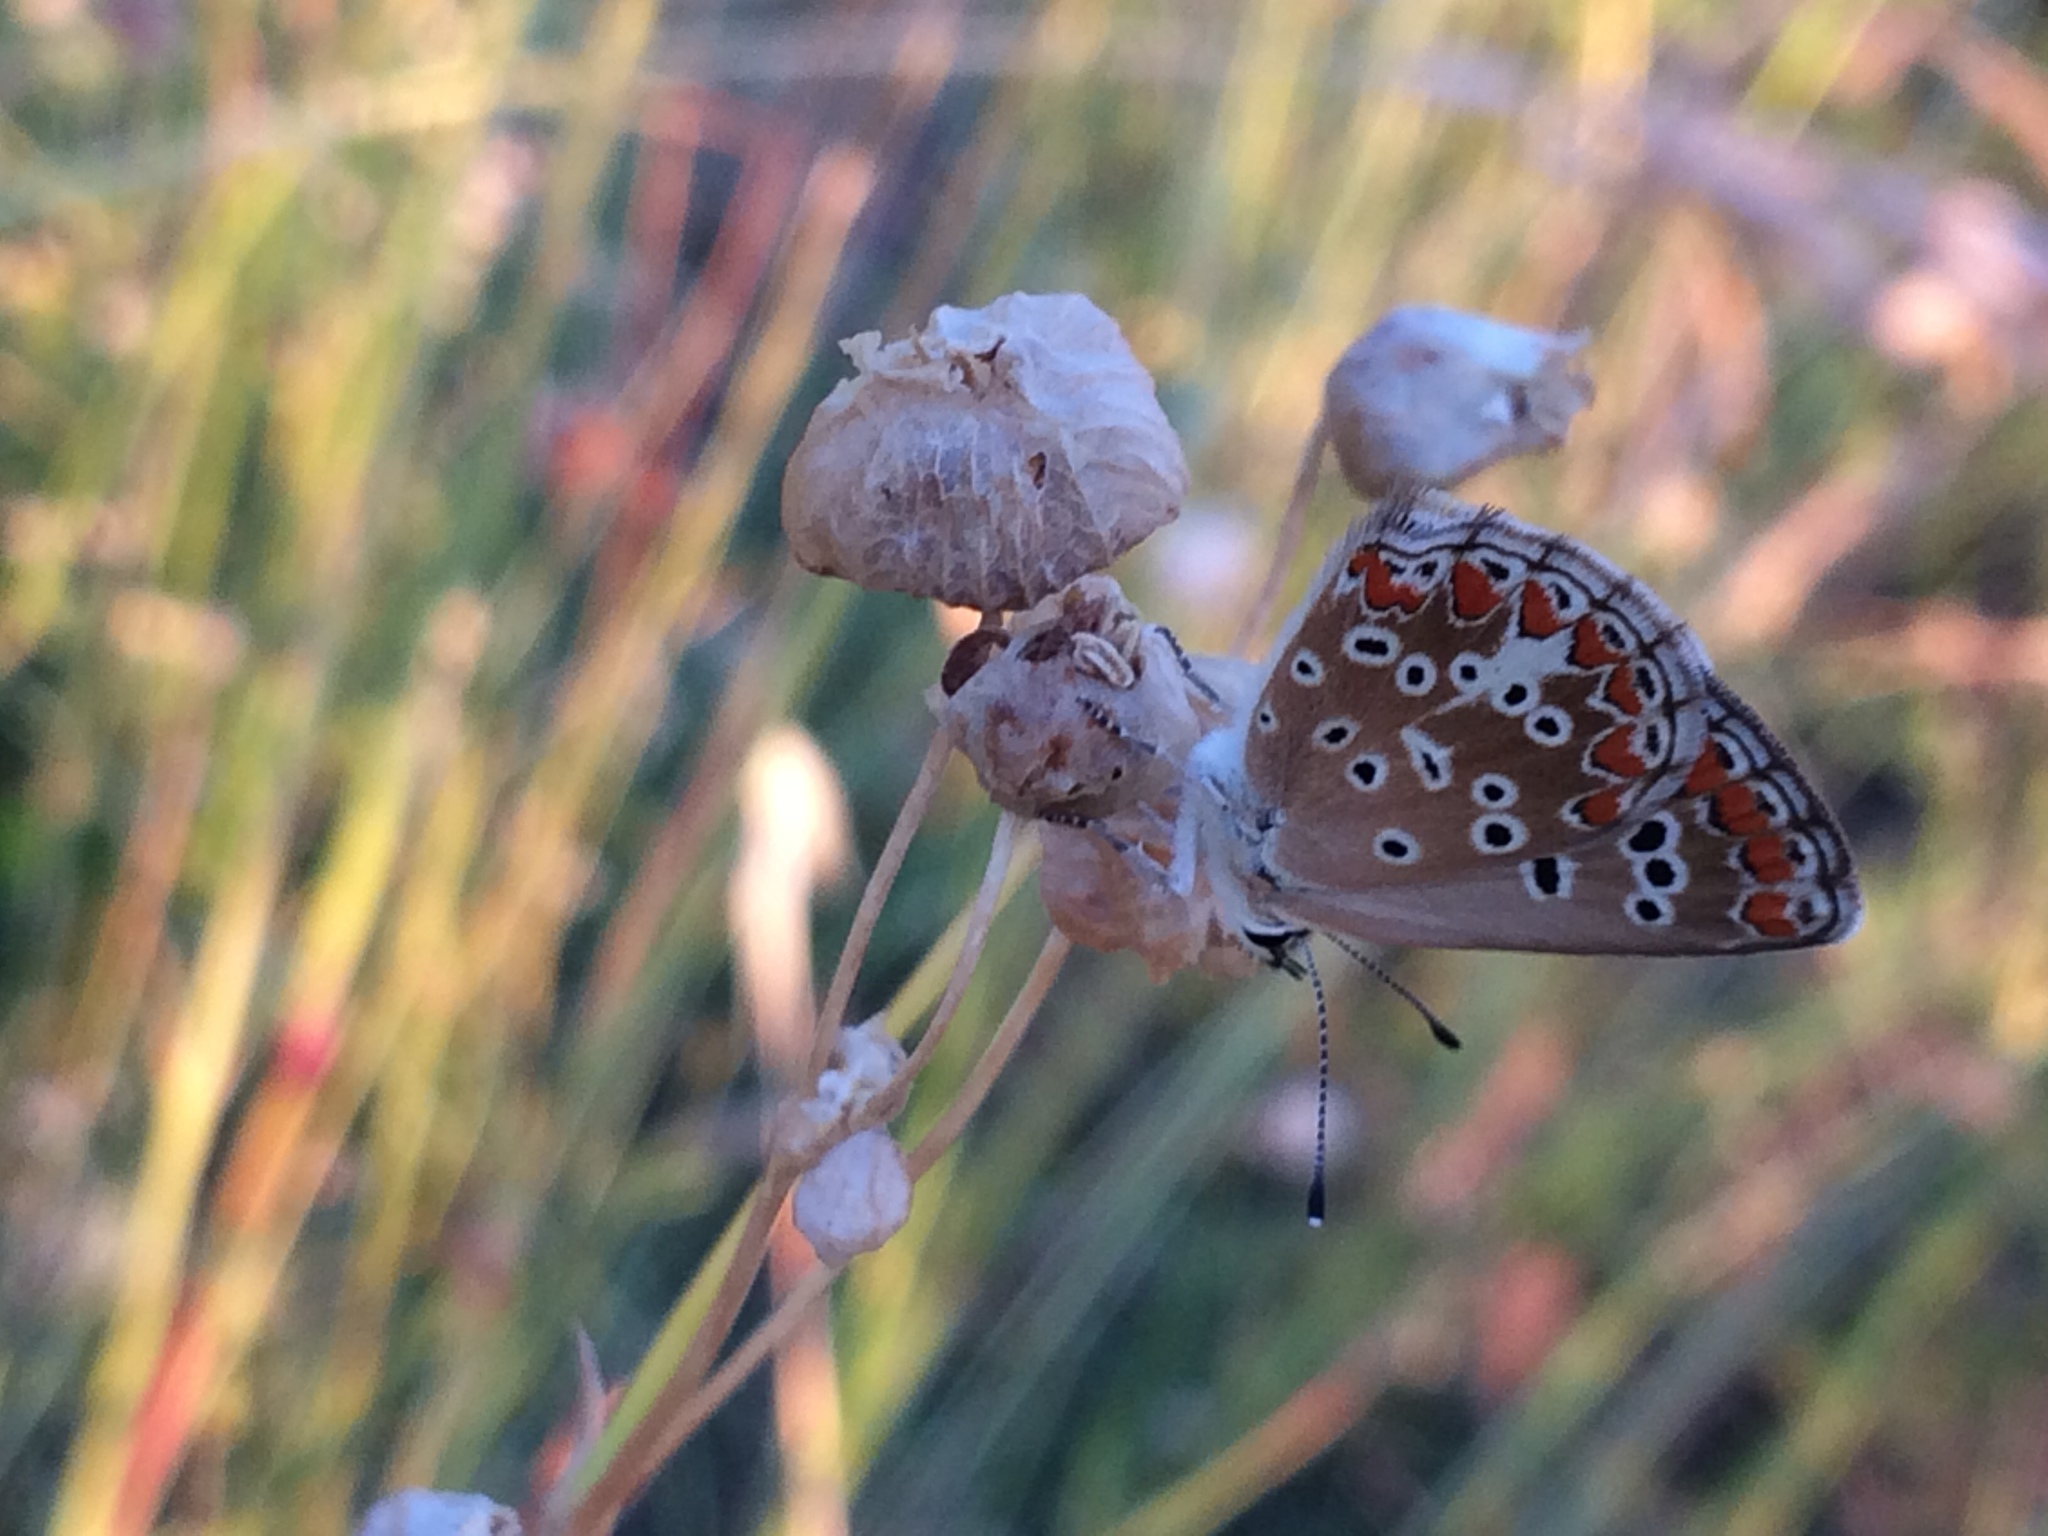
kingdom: Animalia
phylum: Arthropoda
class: Insecta
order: Lepidoptera
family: Lycaenidae
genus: Aricia
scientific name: Aricia agestis
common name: Brown argus
